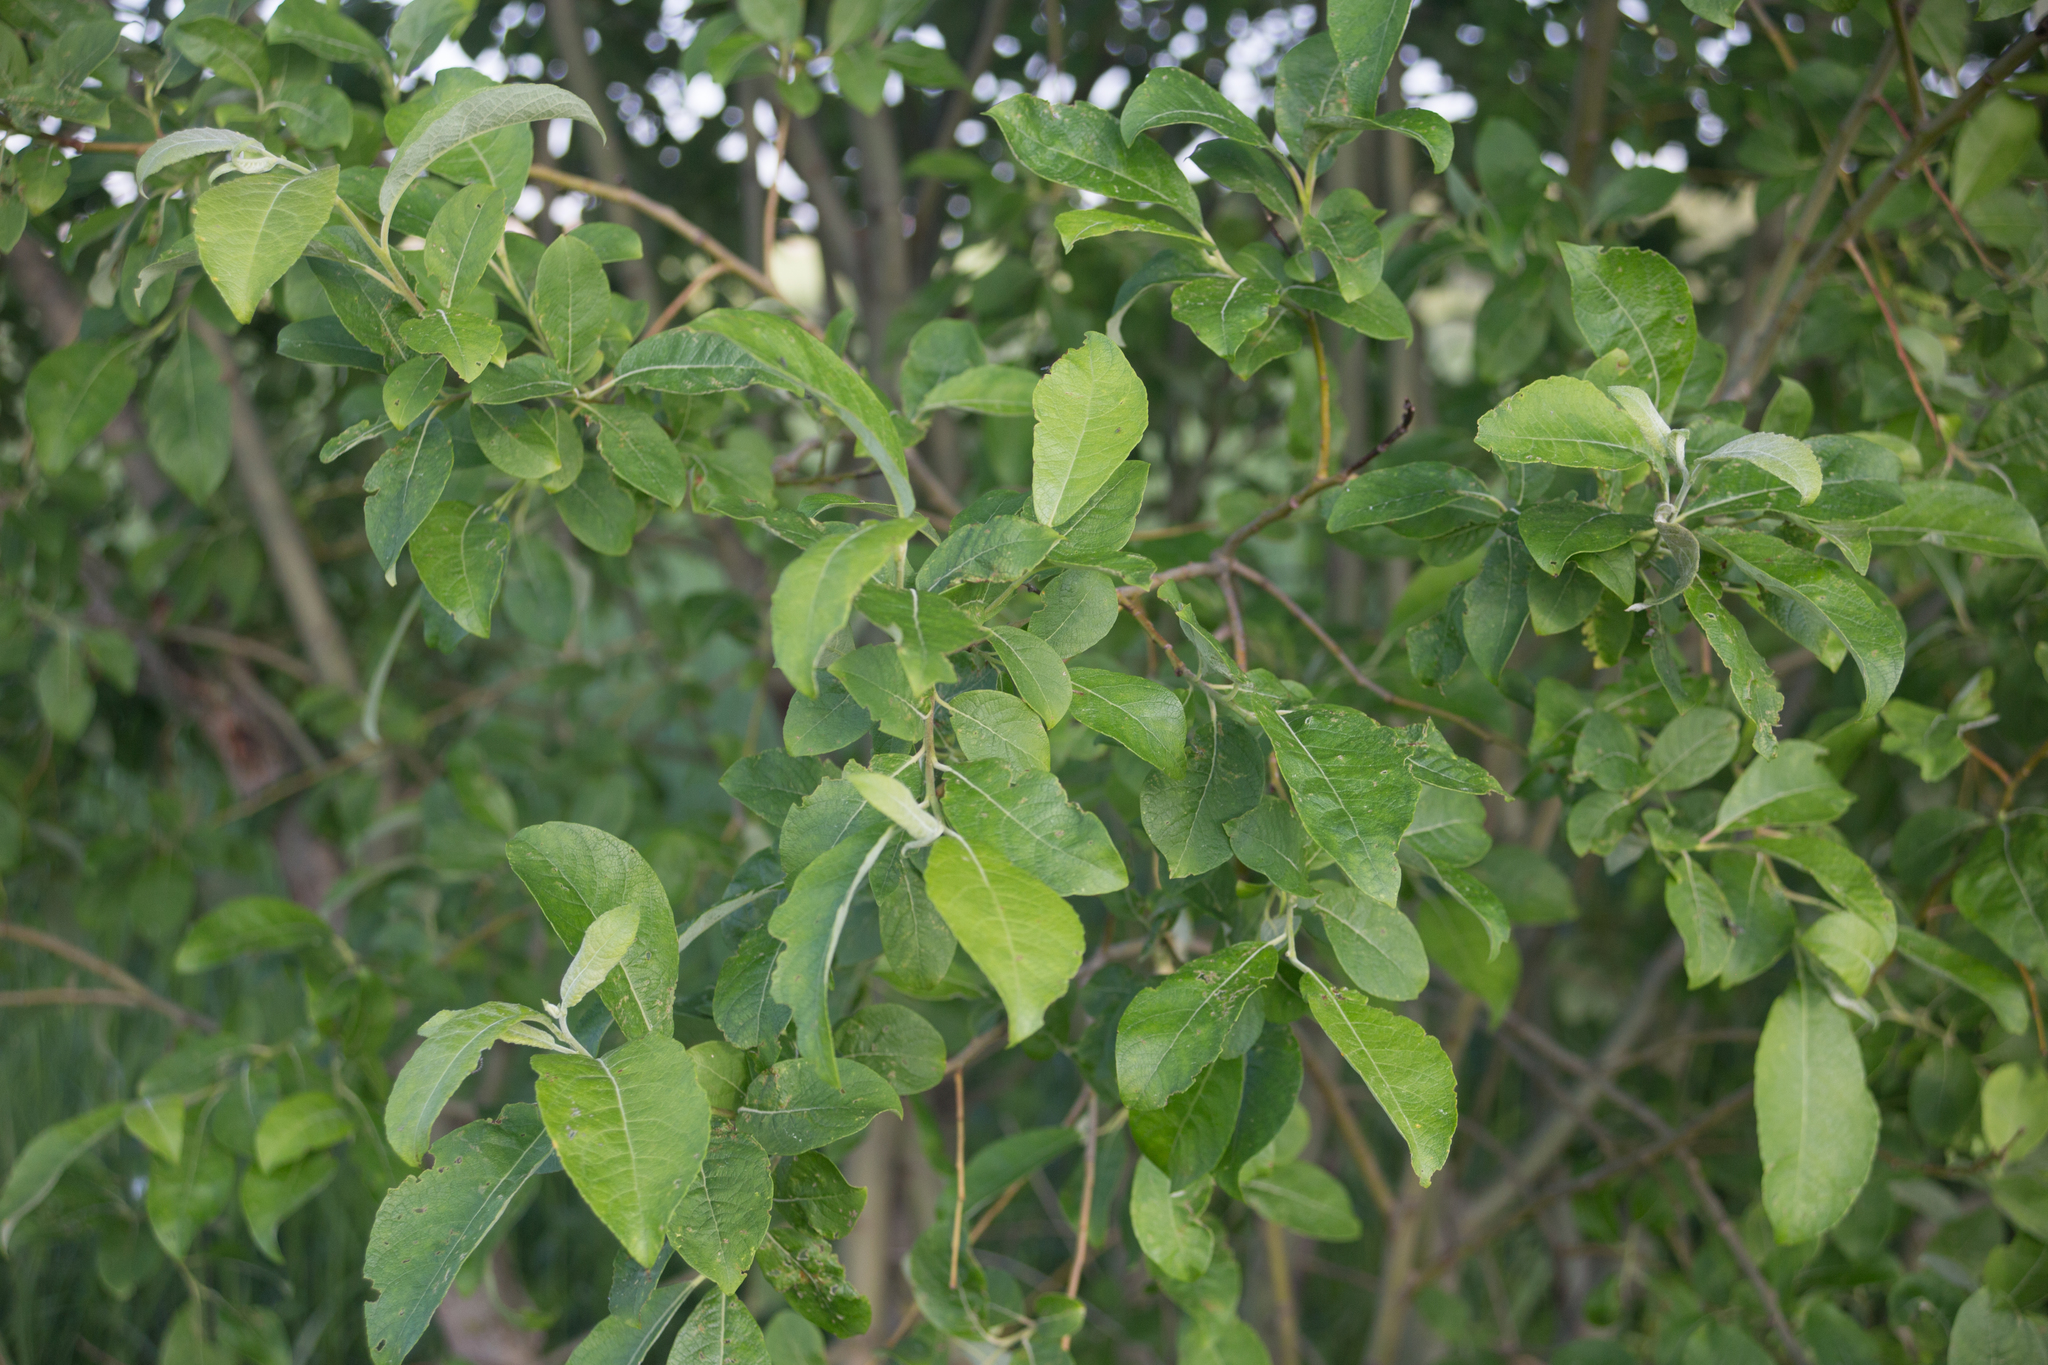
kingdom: Plantae
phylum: Tracheophyta
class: Magnoliopsida
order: Malpighiales
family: Salicaceae
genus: Salix
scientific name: Salix caprea
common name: Goat willow
